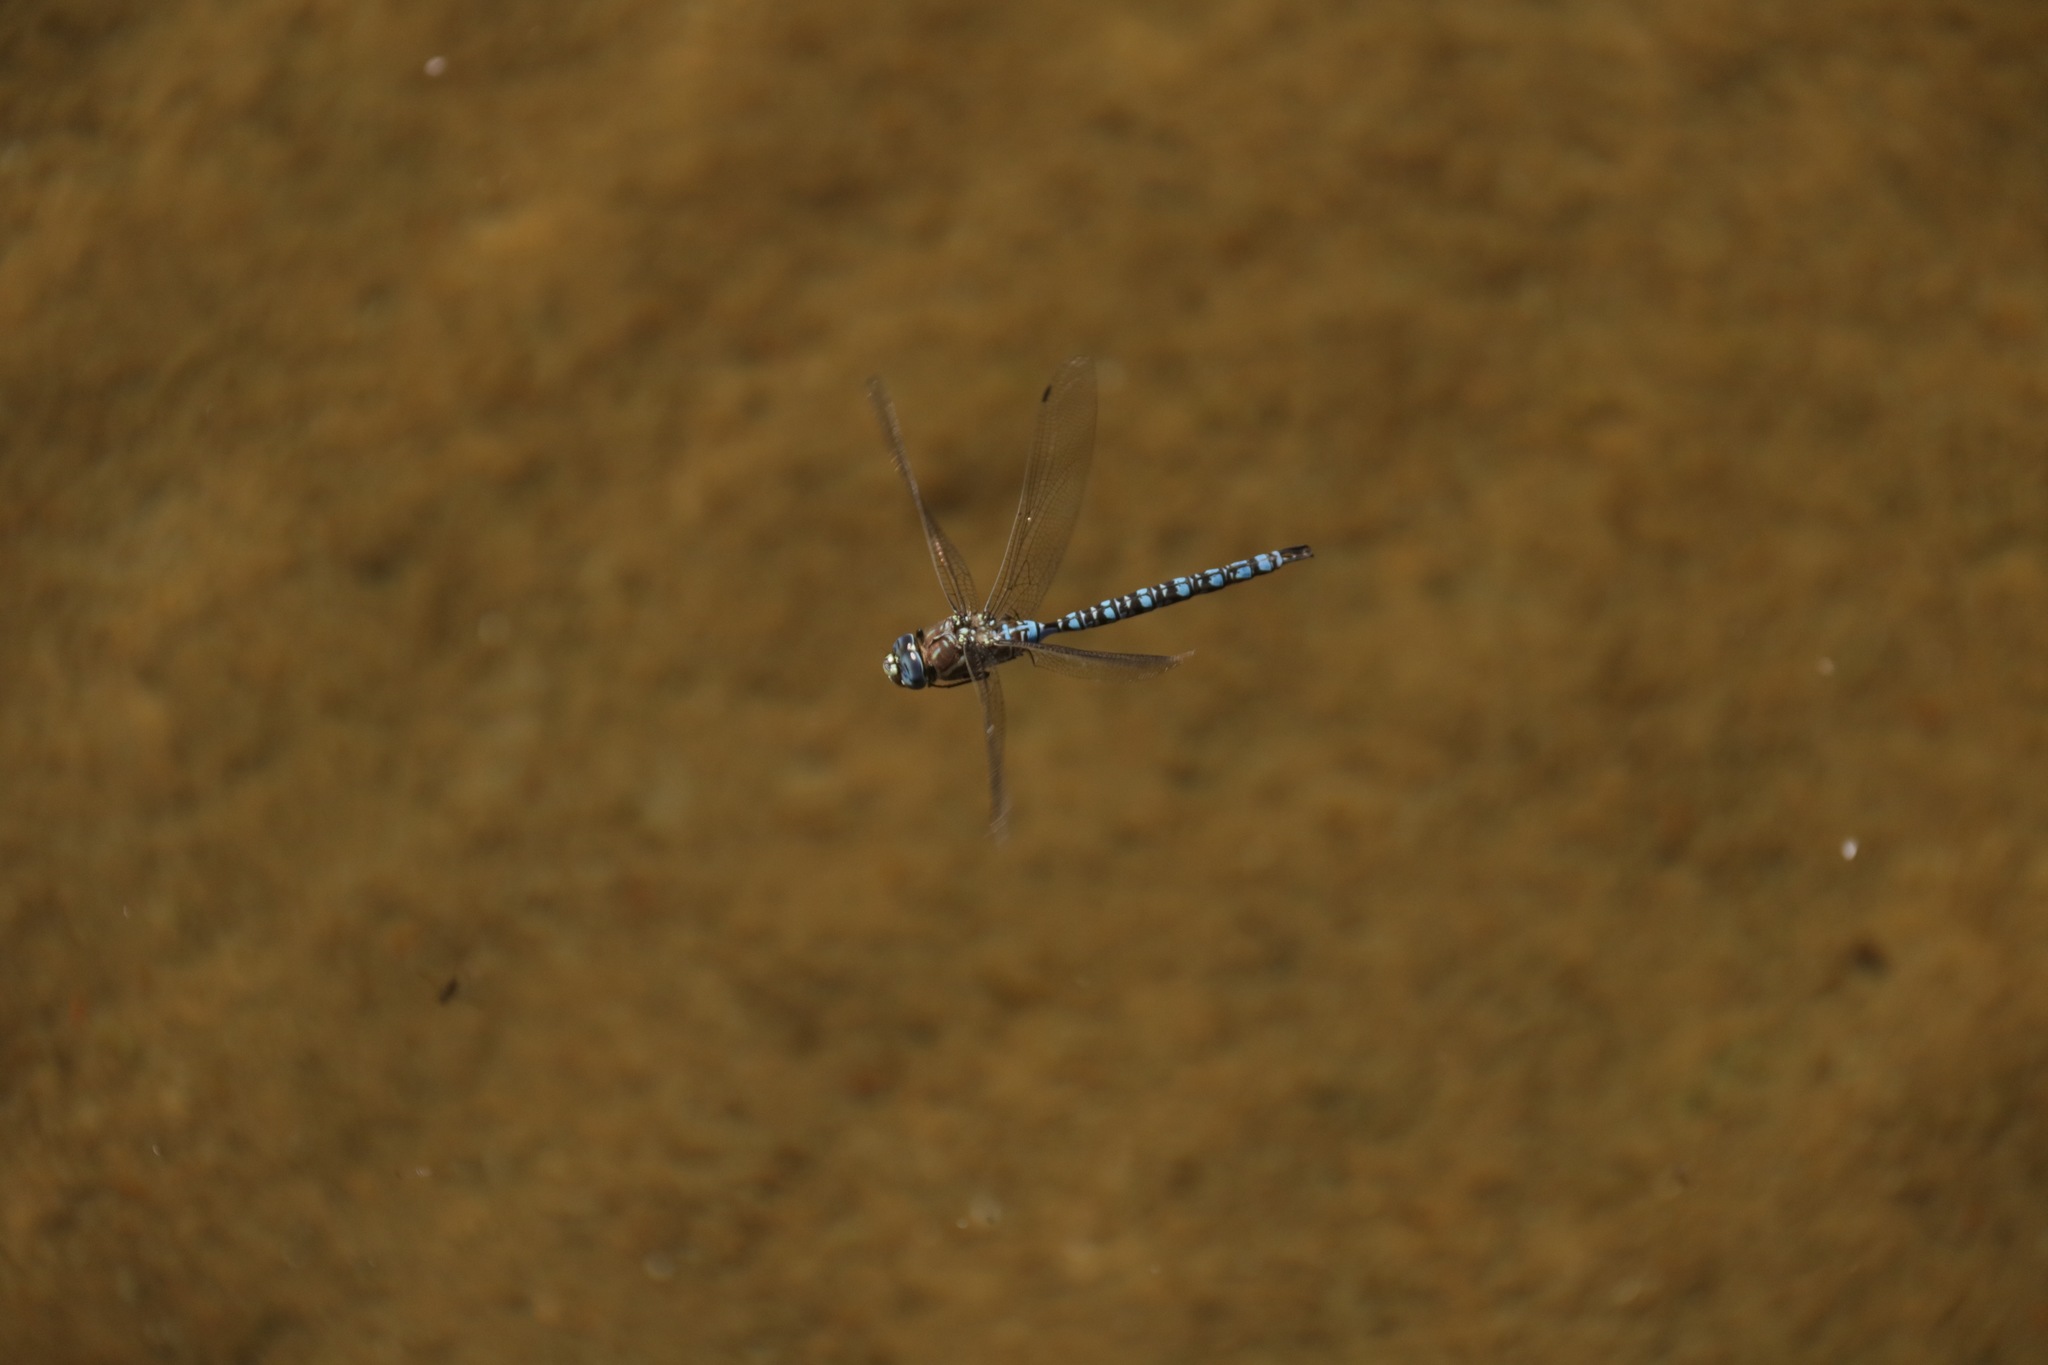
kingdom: Animalia
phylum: Arthropoda
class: Insecta
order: Odonata
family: Aeshnidae
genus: Aeshna
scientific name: Aeshna palmata
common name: Paddle-tailed darner
